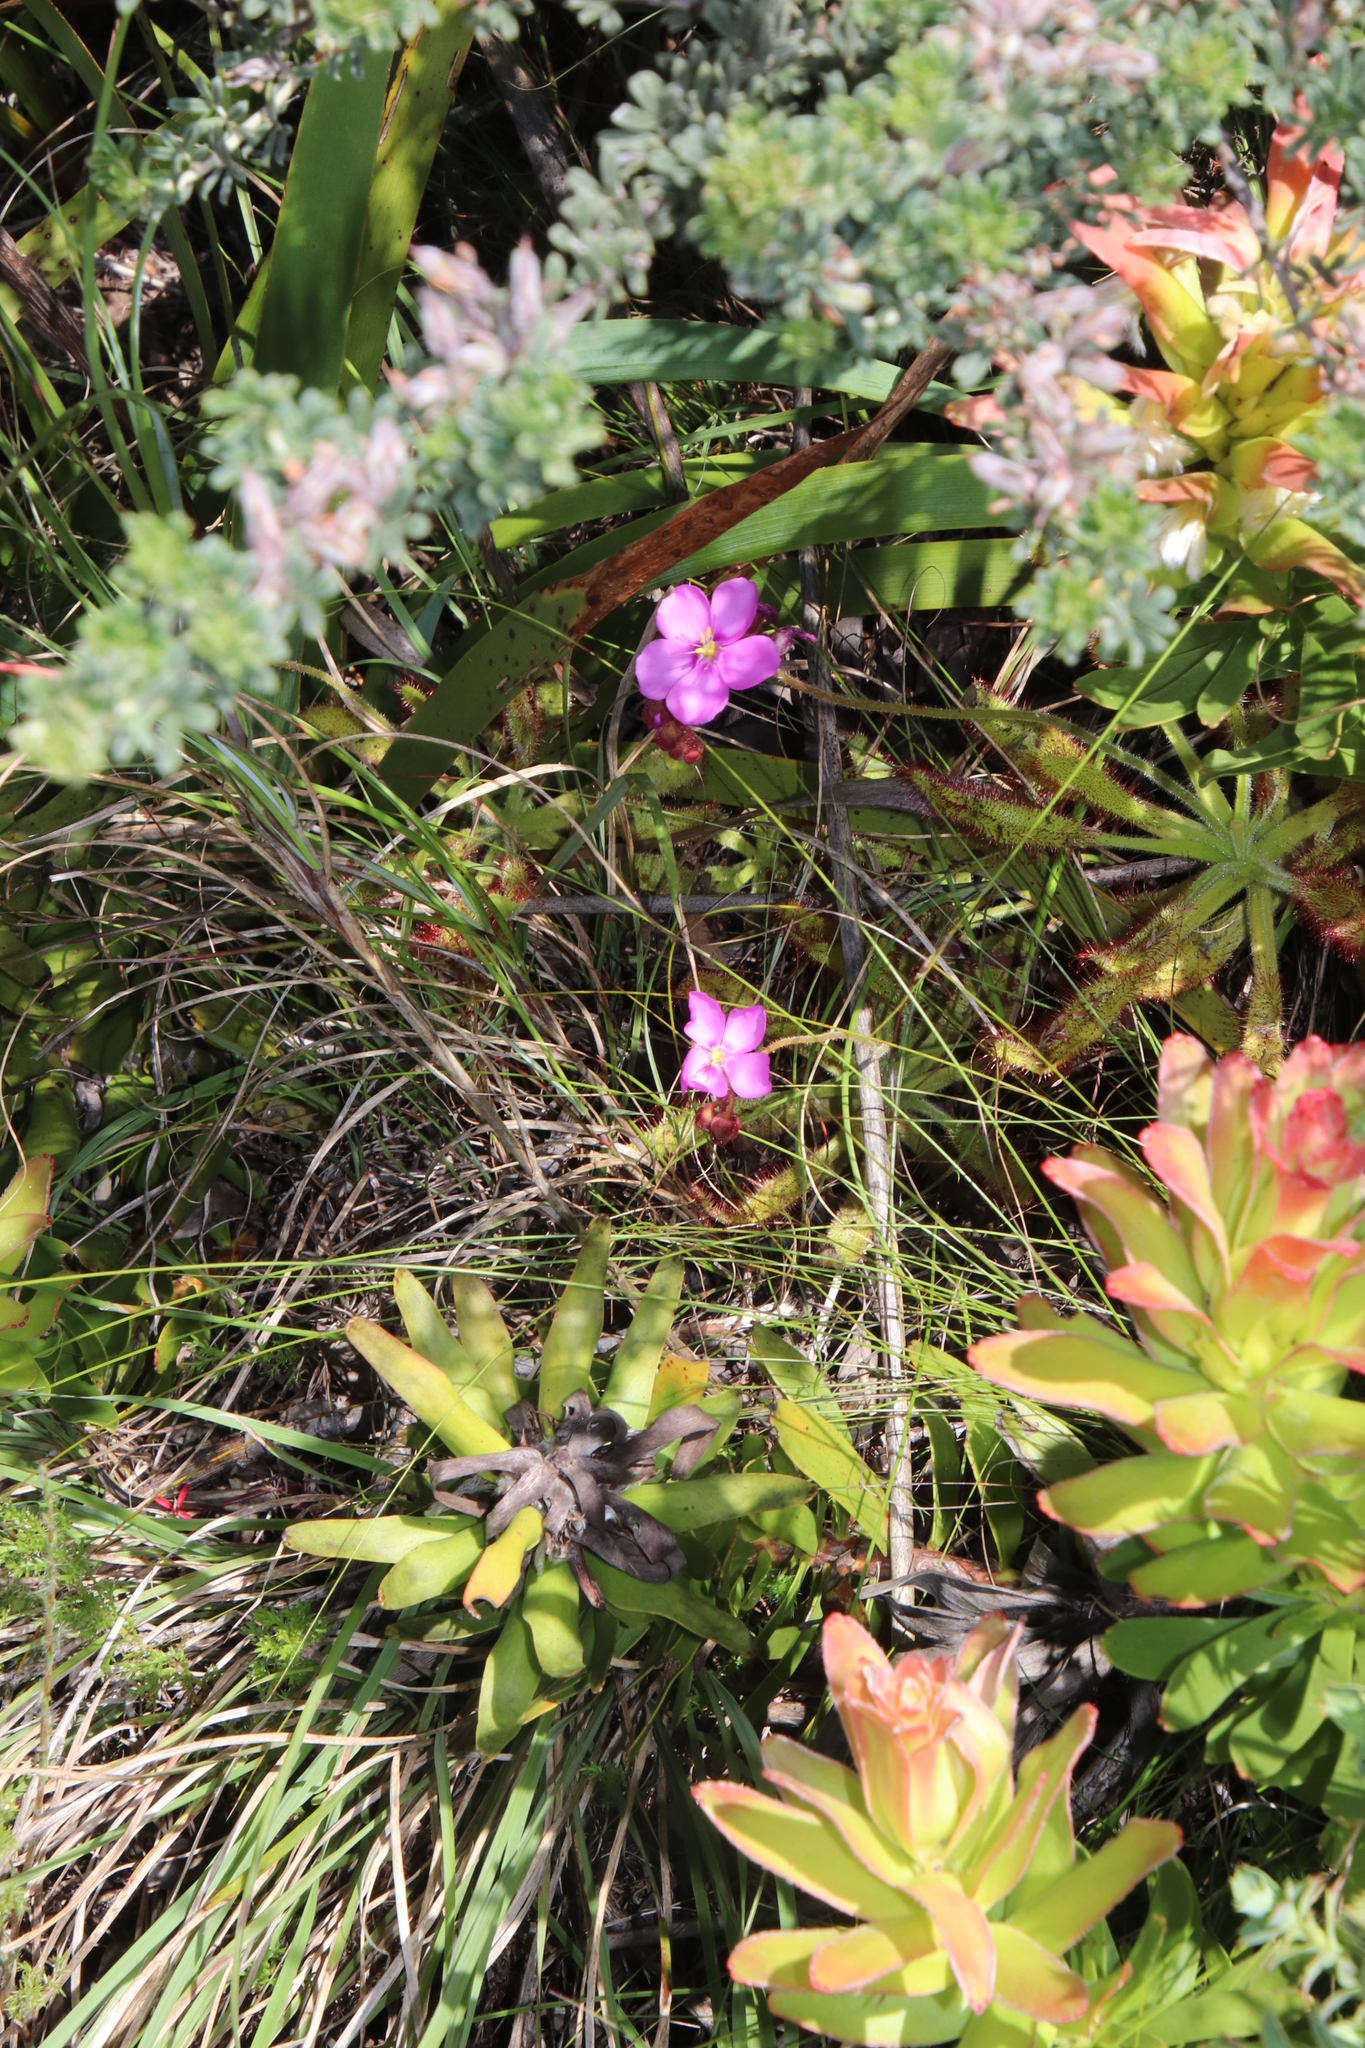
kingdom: Plantae
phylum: Tracheophyta
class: Magnoliopsida
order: Caryophyllales
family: Droseraceae
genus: Drosera
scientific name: Drosera hilaris
